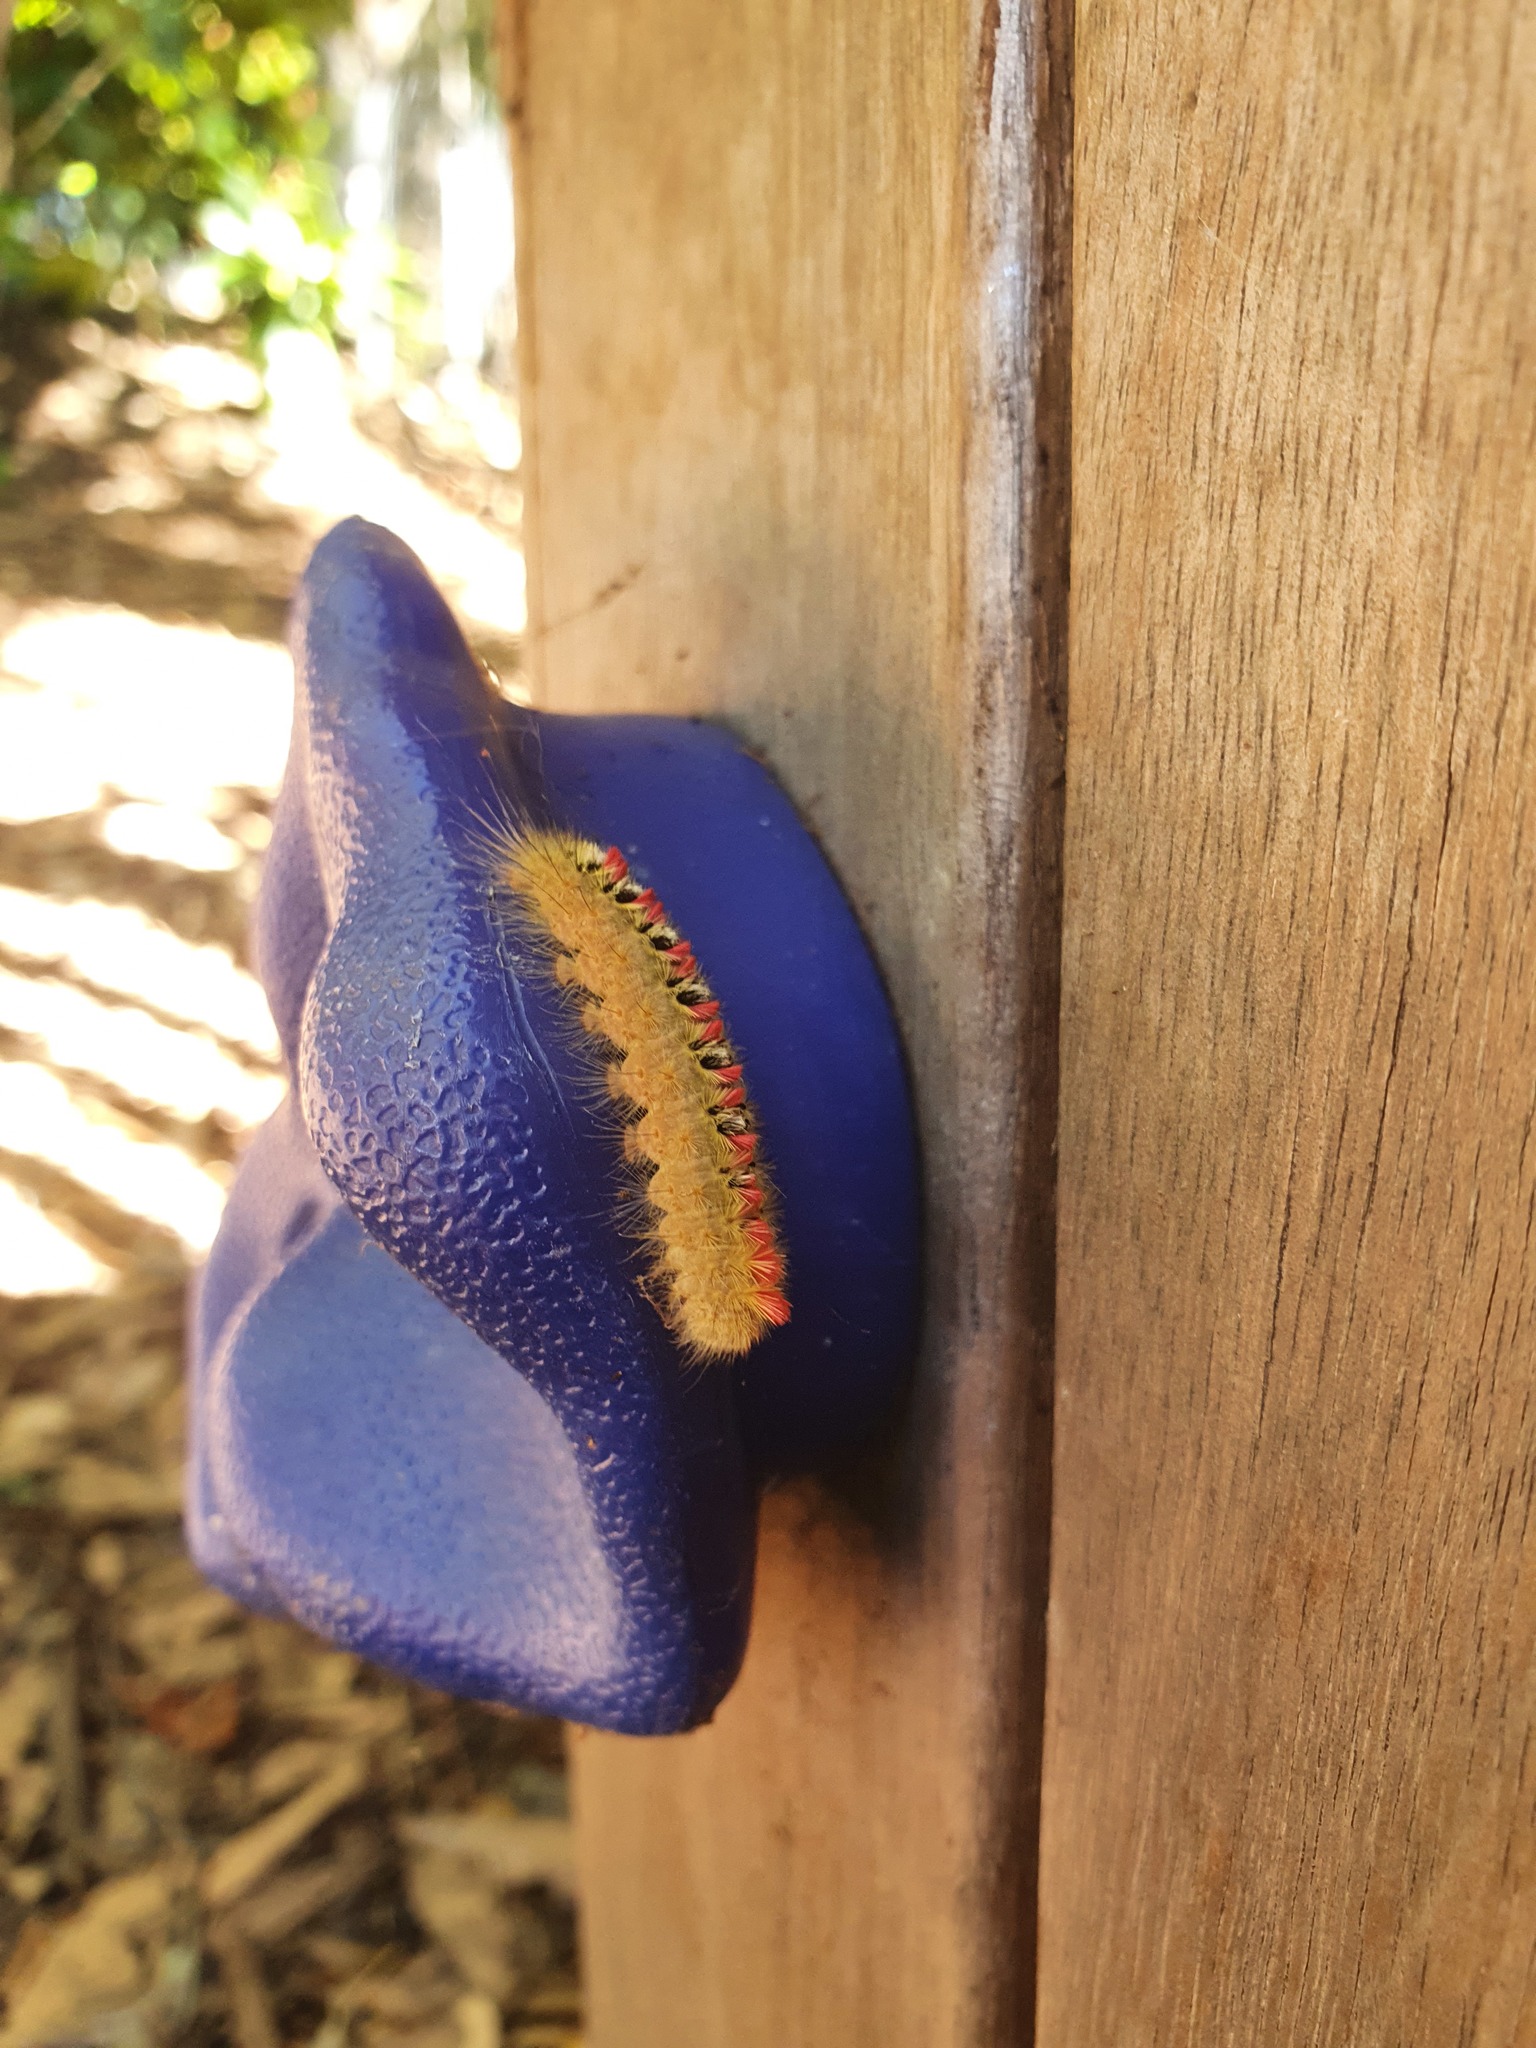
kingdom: Animalia
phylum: Arthropoda
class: Insecta
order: Lepidoptera
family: Notodontidae
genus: Trichiocercus
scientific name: Trichiocercus sparshalli
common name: Long-tailed satin
